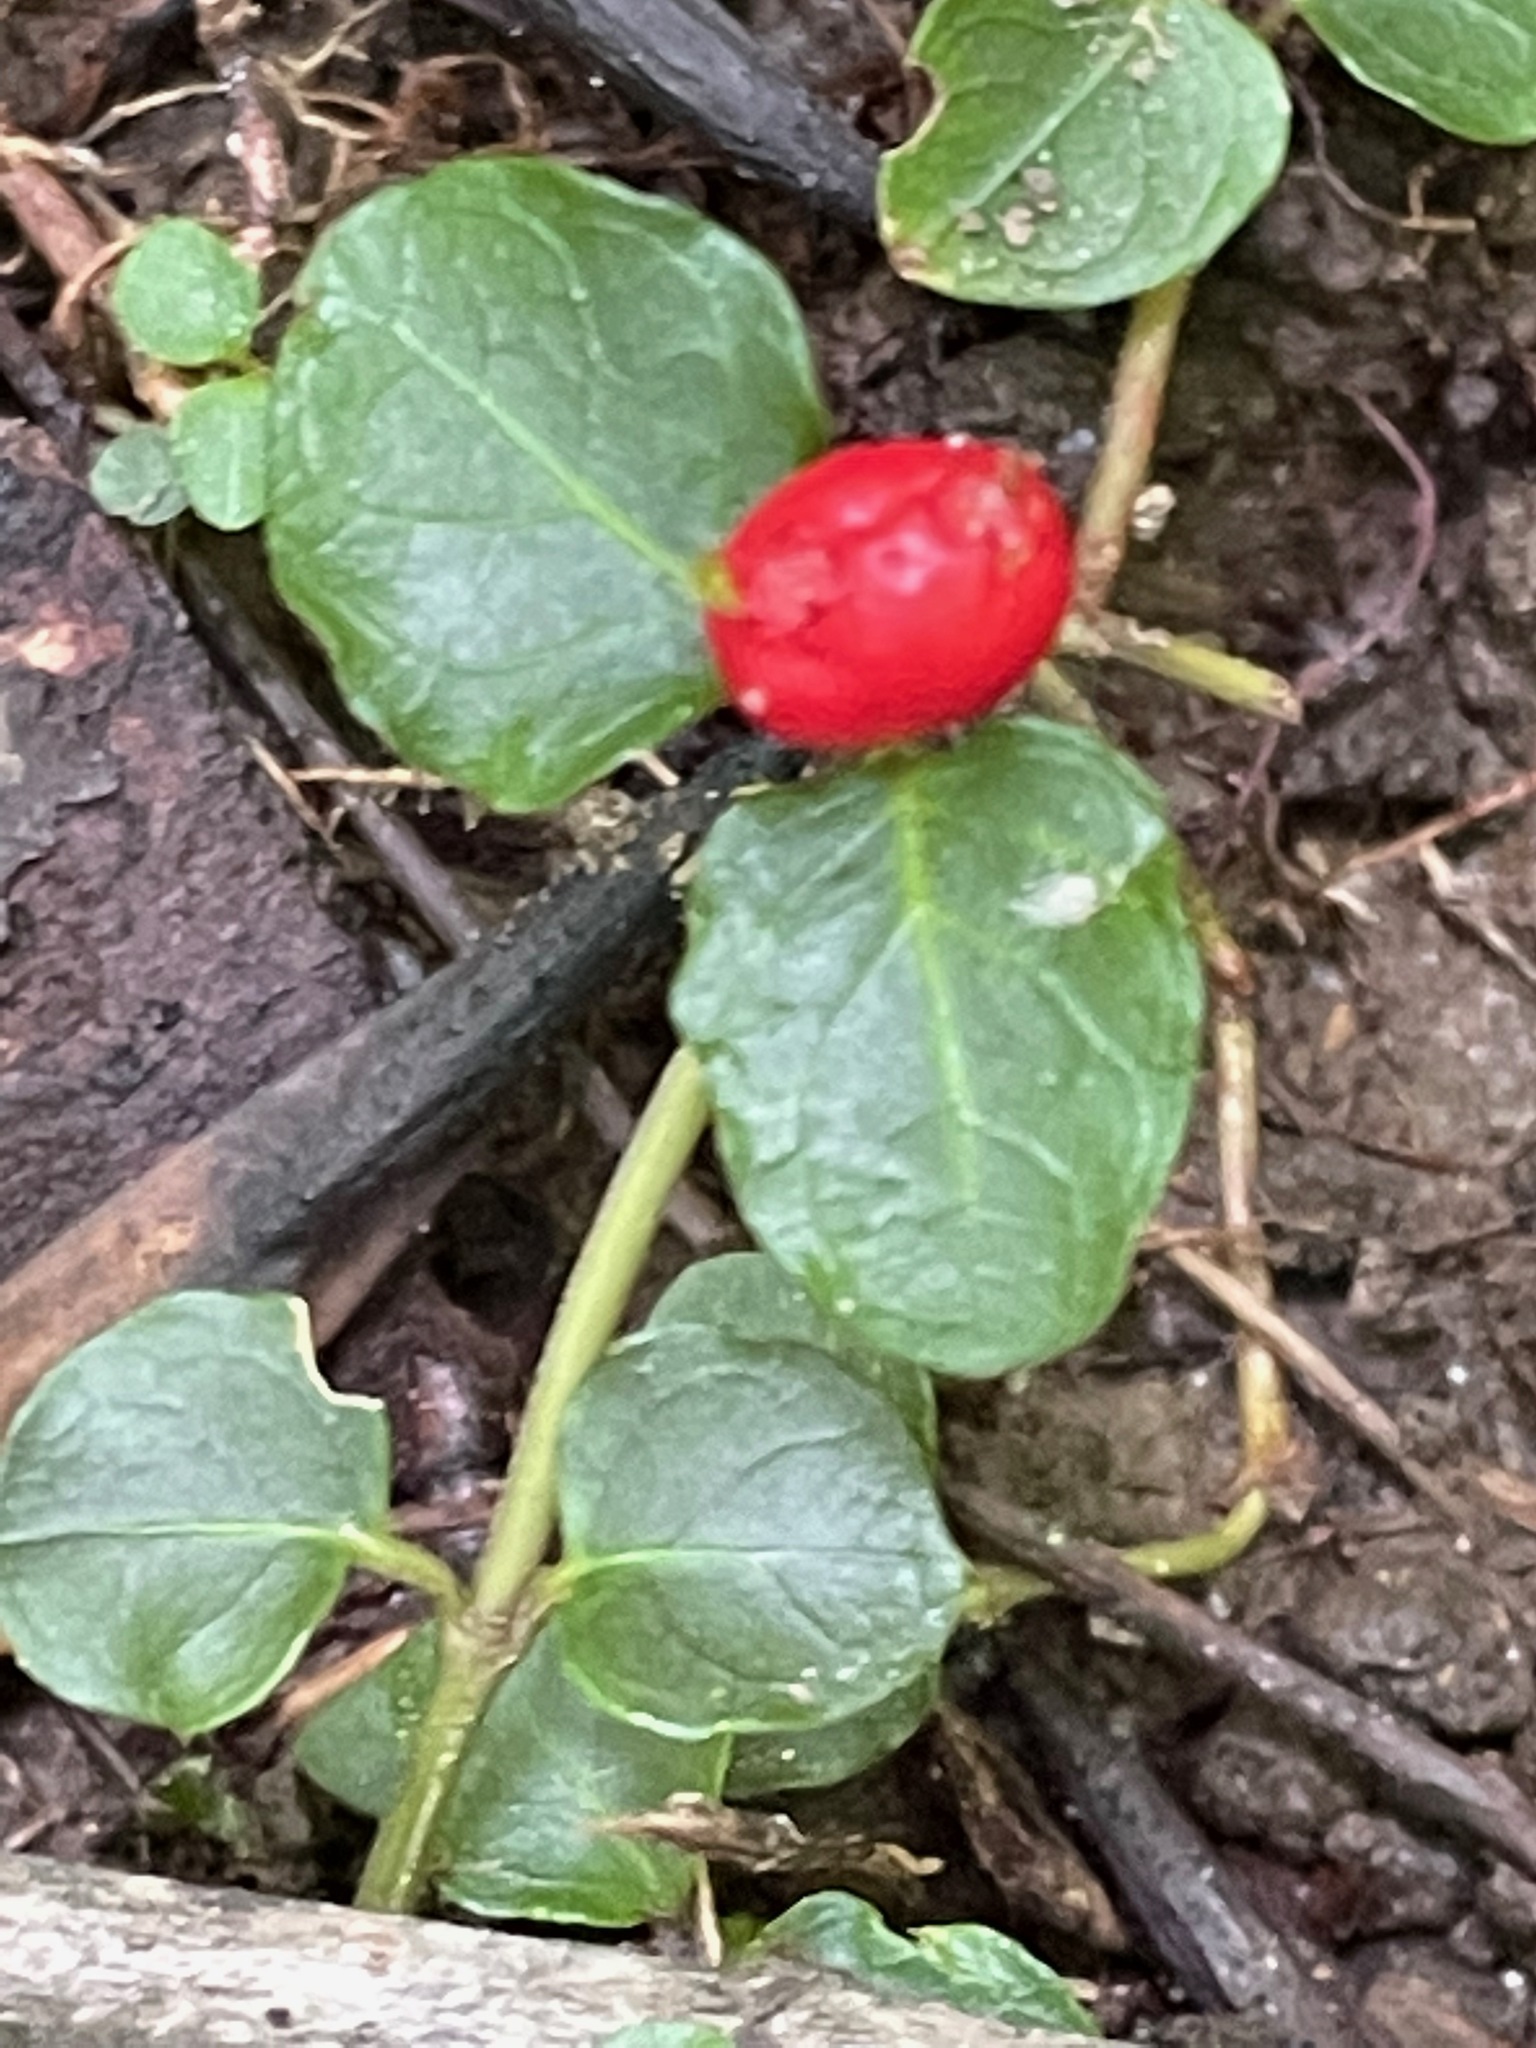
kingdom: Plantae
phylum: Tracheophyta
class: Magnoliopsida
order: Gentianales
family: Rubiaceae
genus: Mitchella
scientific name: Mitchella repens
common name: Partridge-berry
